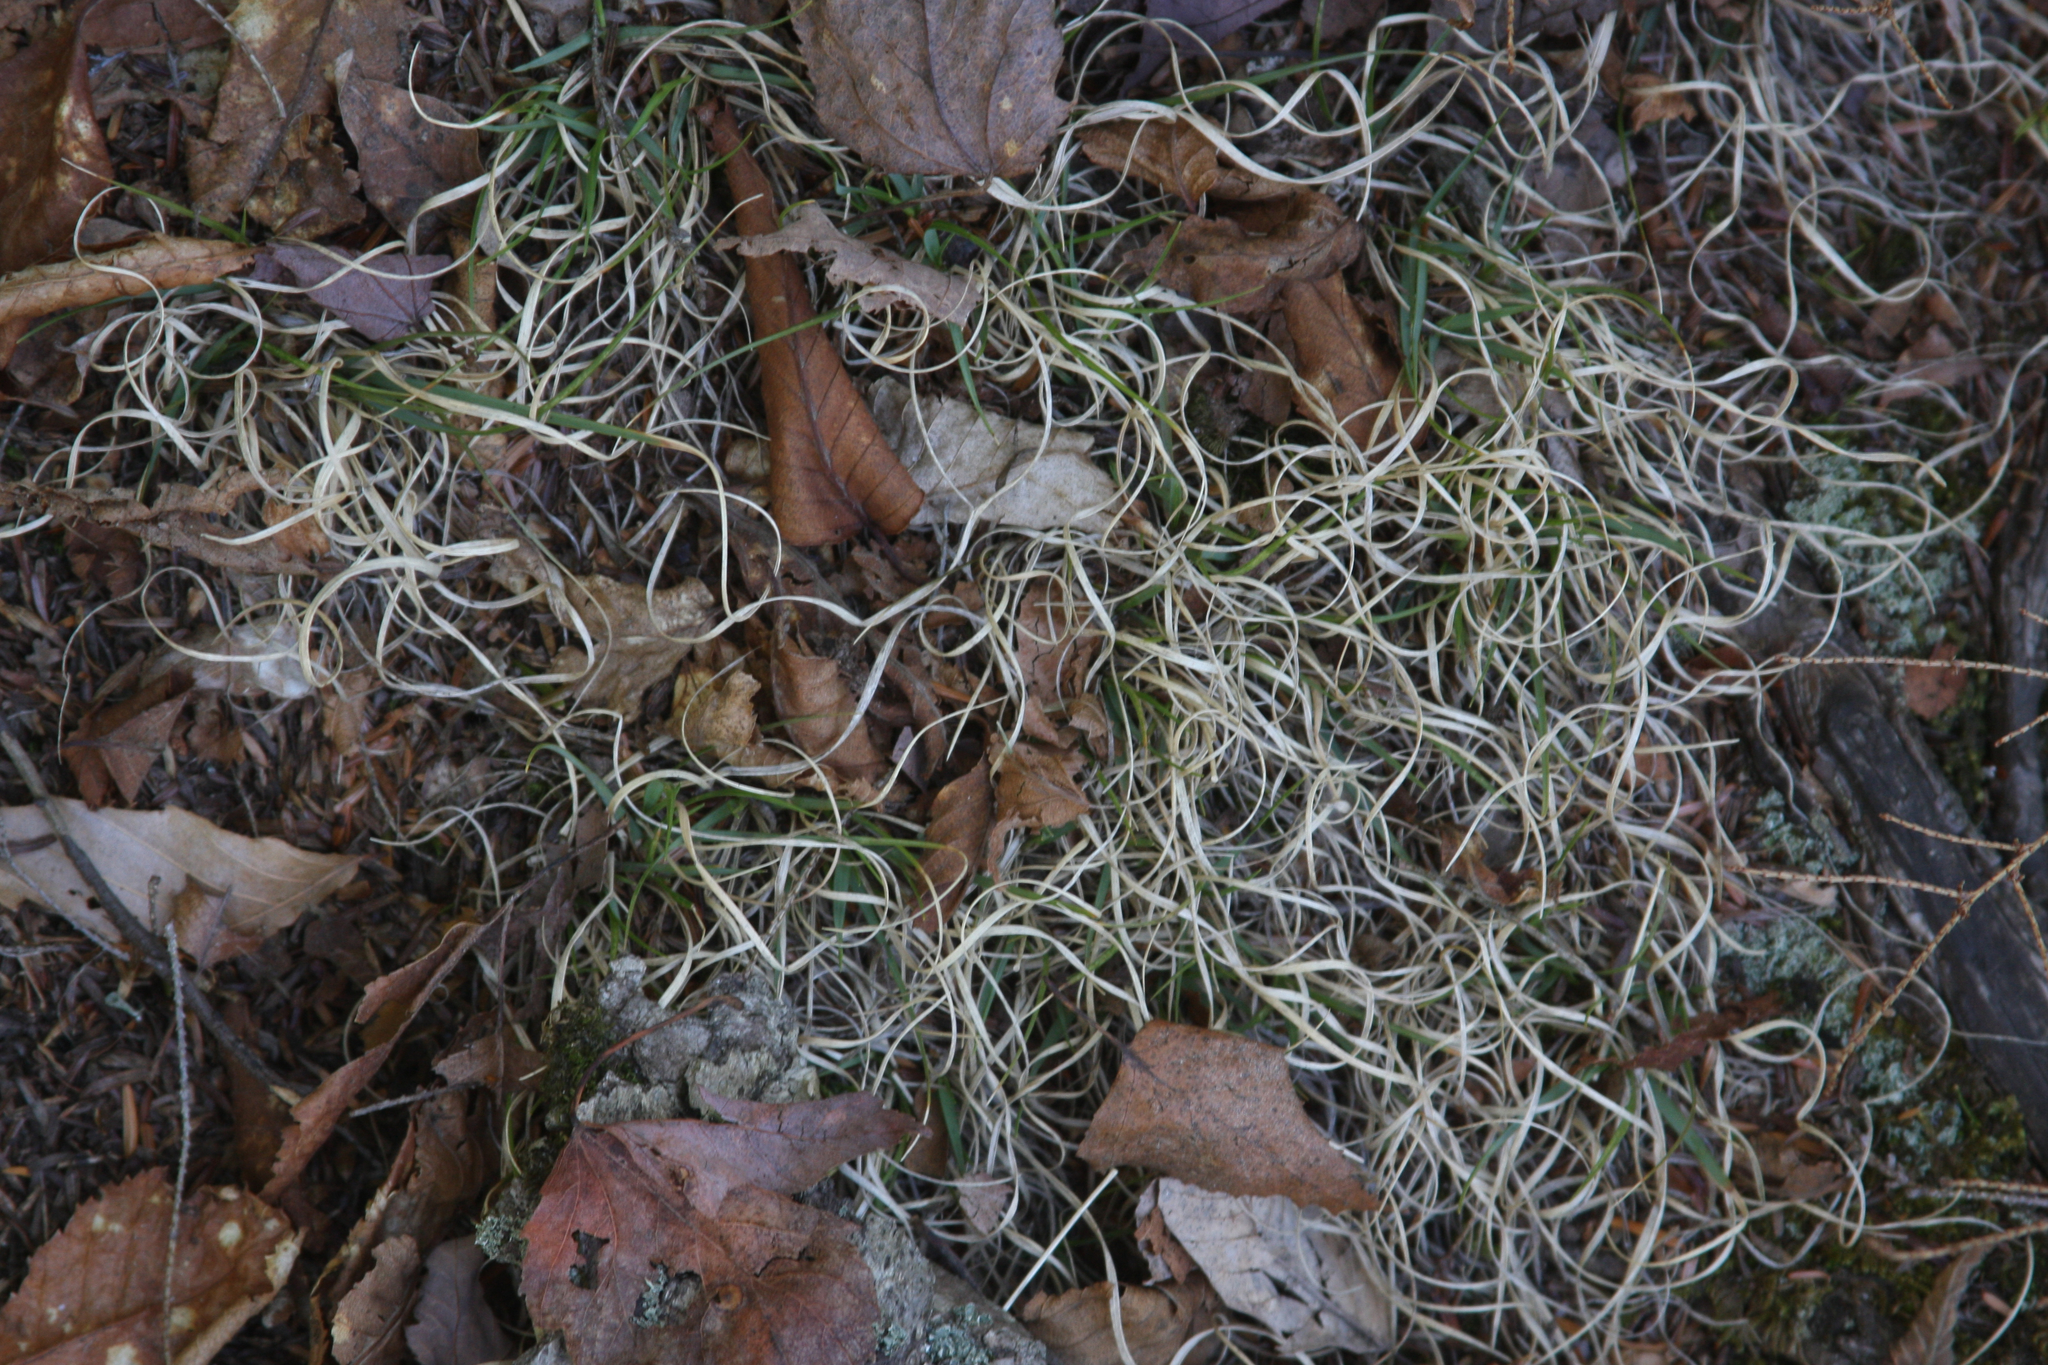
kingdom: Plantae
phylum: Tracheophyta
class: Liliopsida
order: Poales
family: Poaceae
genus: Danthonia
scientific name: Danthonia spicata
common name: Common wild oatgrass
